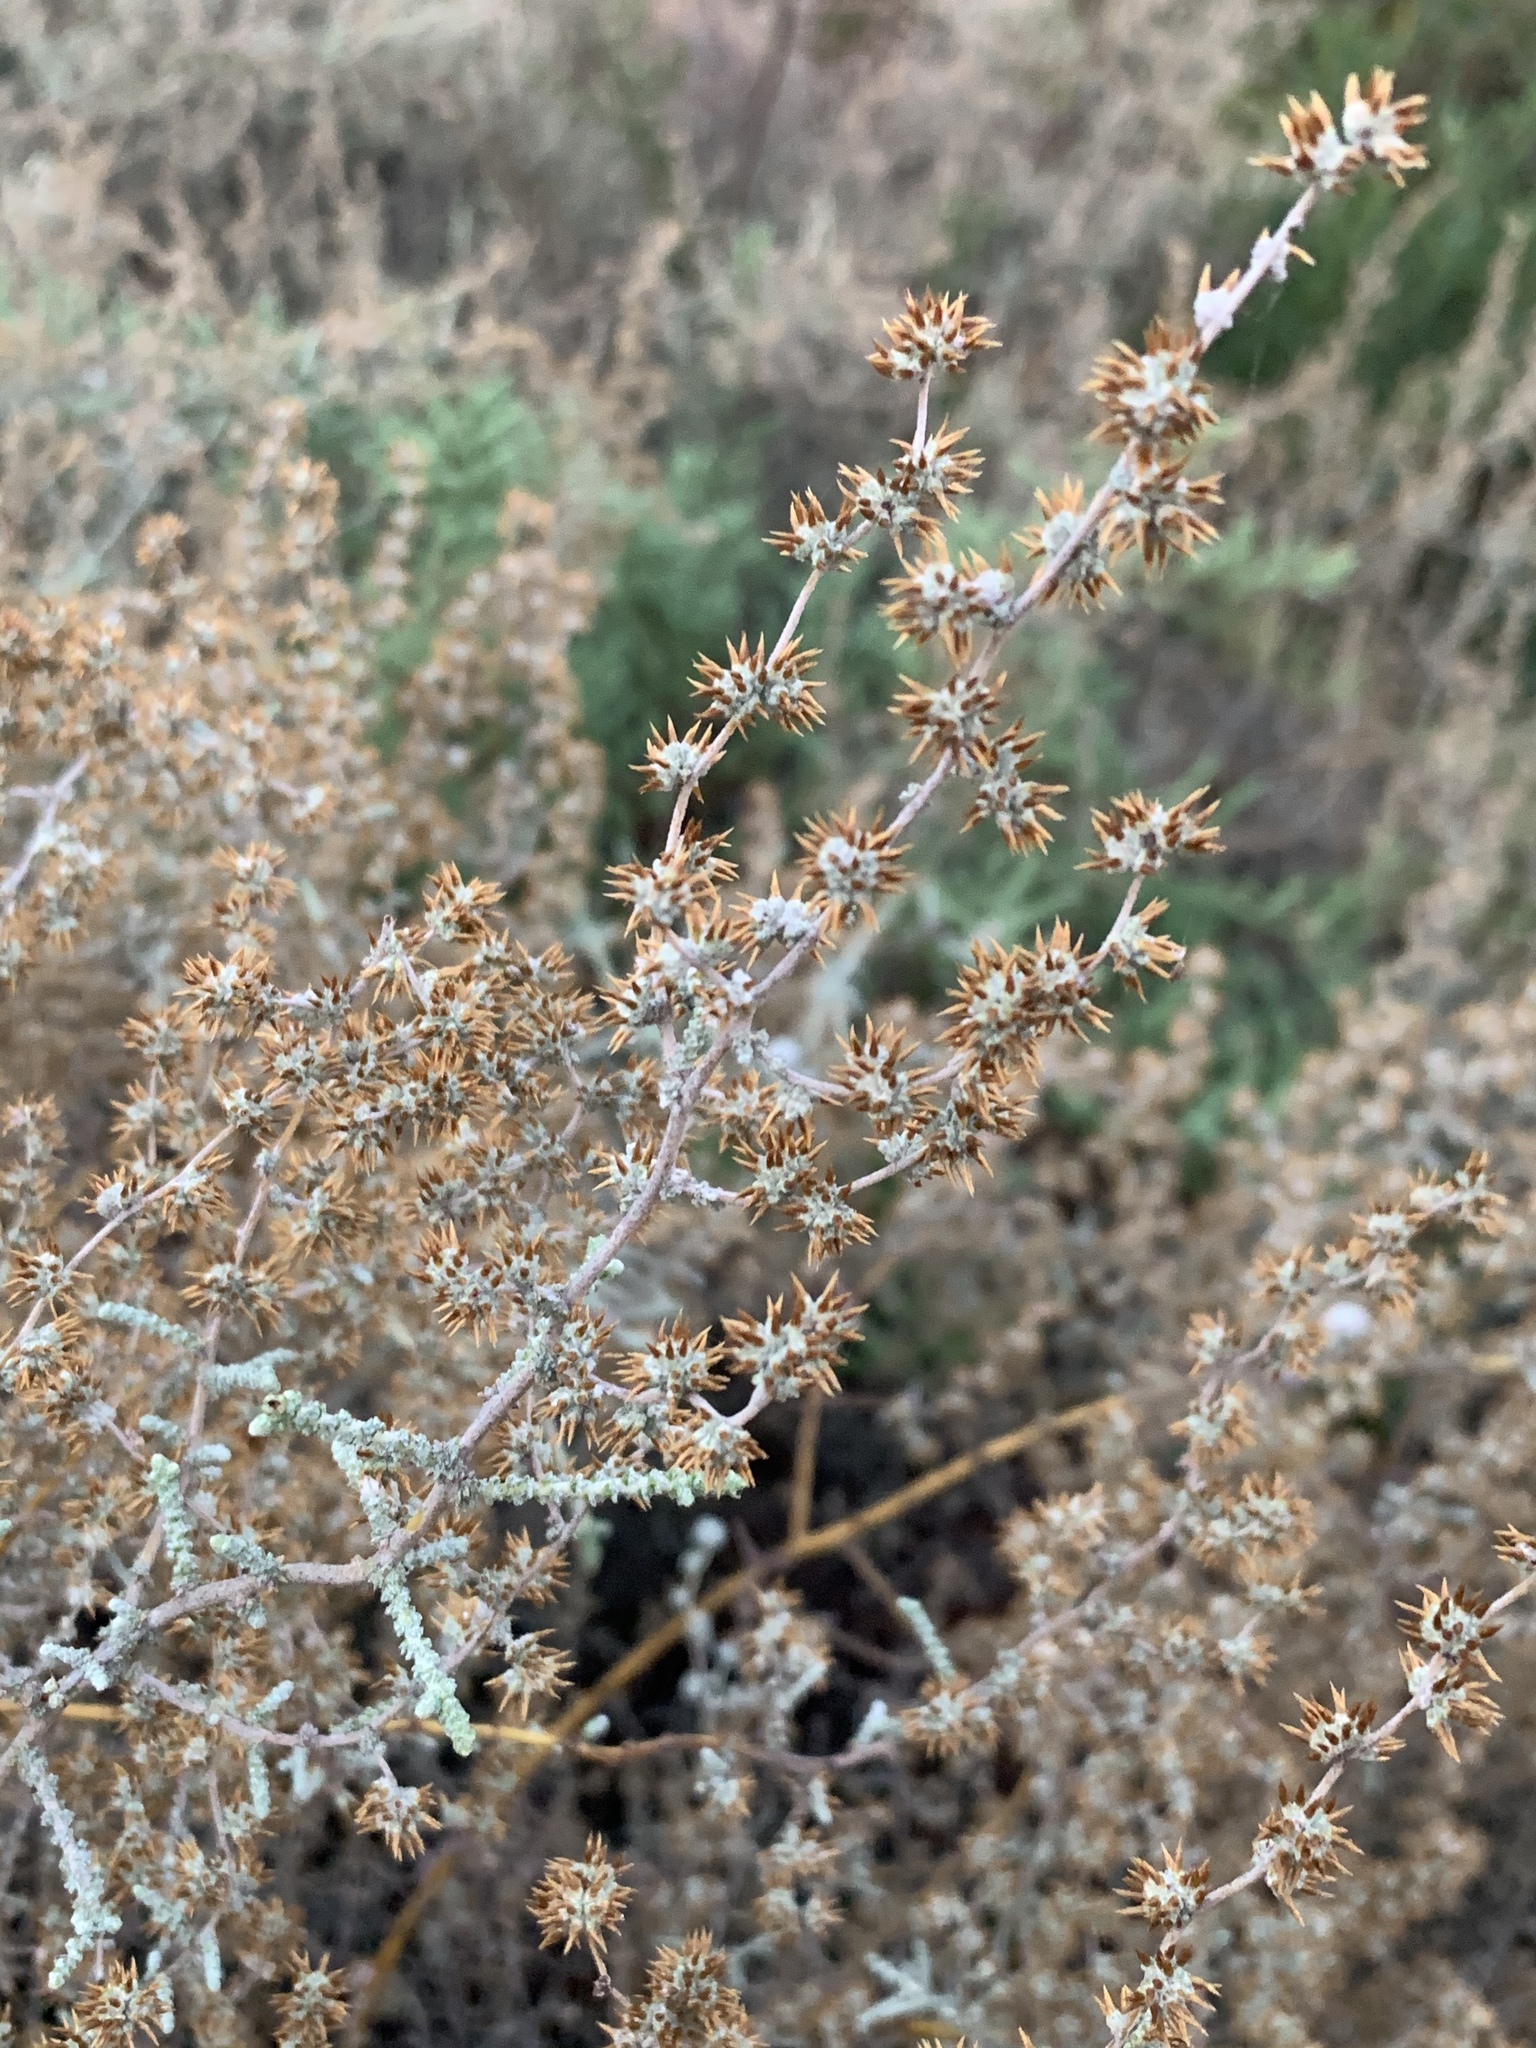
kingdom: Plantae
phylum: Tracheophyta
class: Magnoliopsida
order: Asterales
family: Asteraceae
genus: Seriphium
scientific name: Seriphium plumosum
